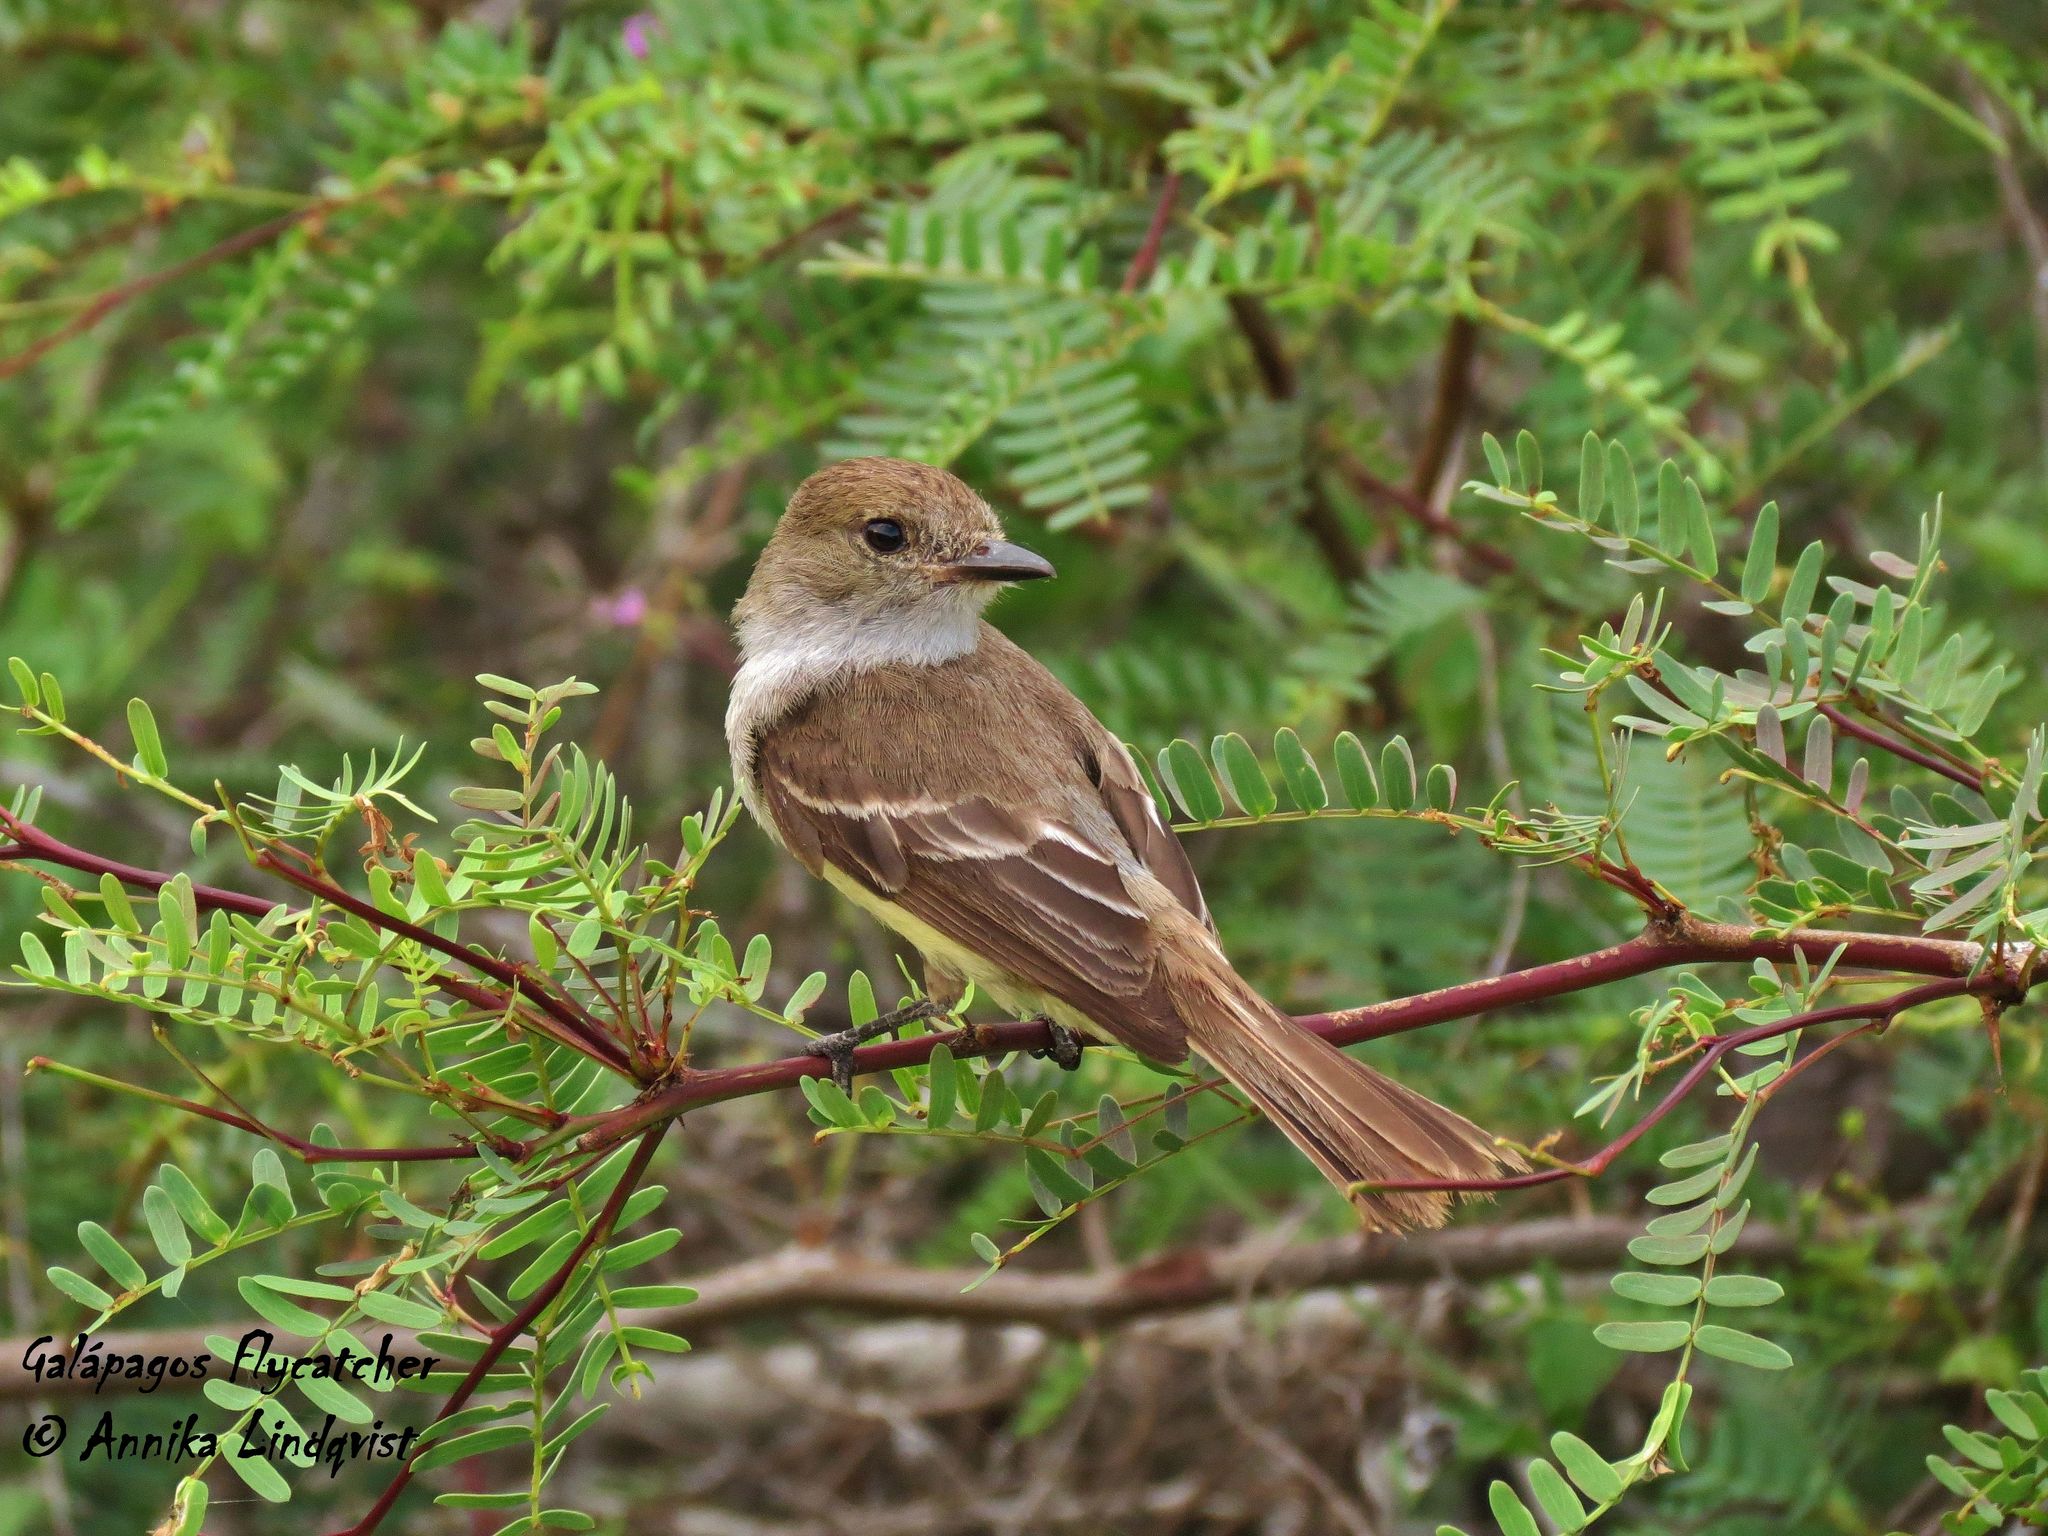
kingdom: Animalia
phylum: Chordata
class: Aves
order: Passeriformes
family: Tyrannidae
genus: Myiarchus
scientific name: Myiarchus magnirostris
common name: Galapagos flycatcher
